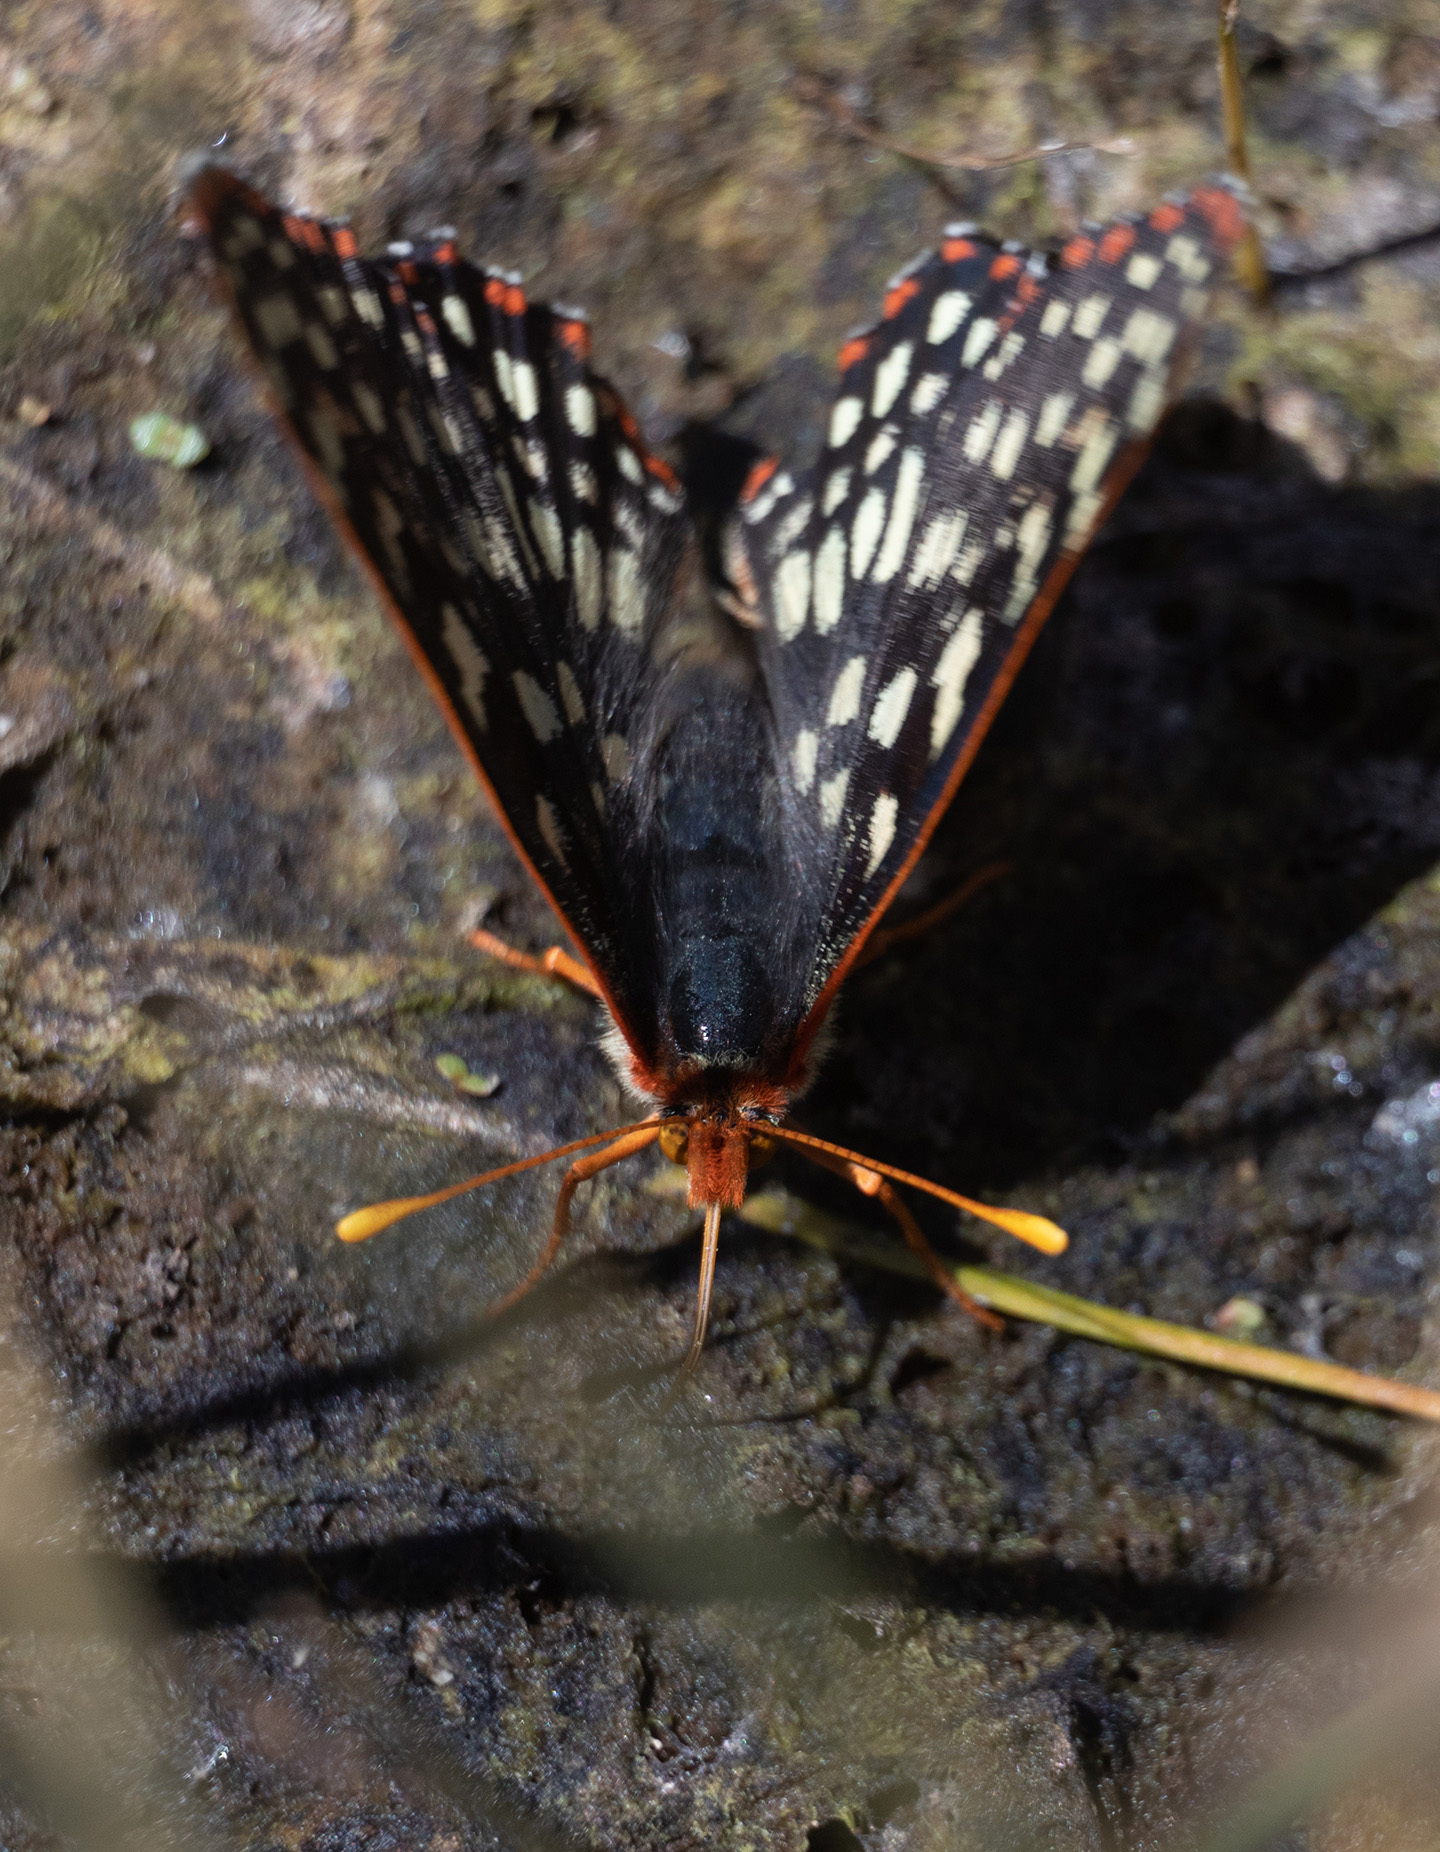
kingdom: Animalia
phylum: Arthropoda
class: Insecta
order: Lepidoptera
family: Nymphalidae
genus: Occidryas
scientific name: Occidryas chalcedona
